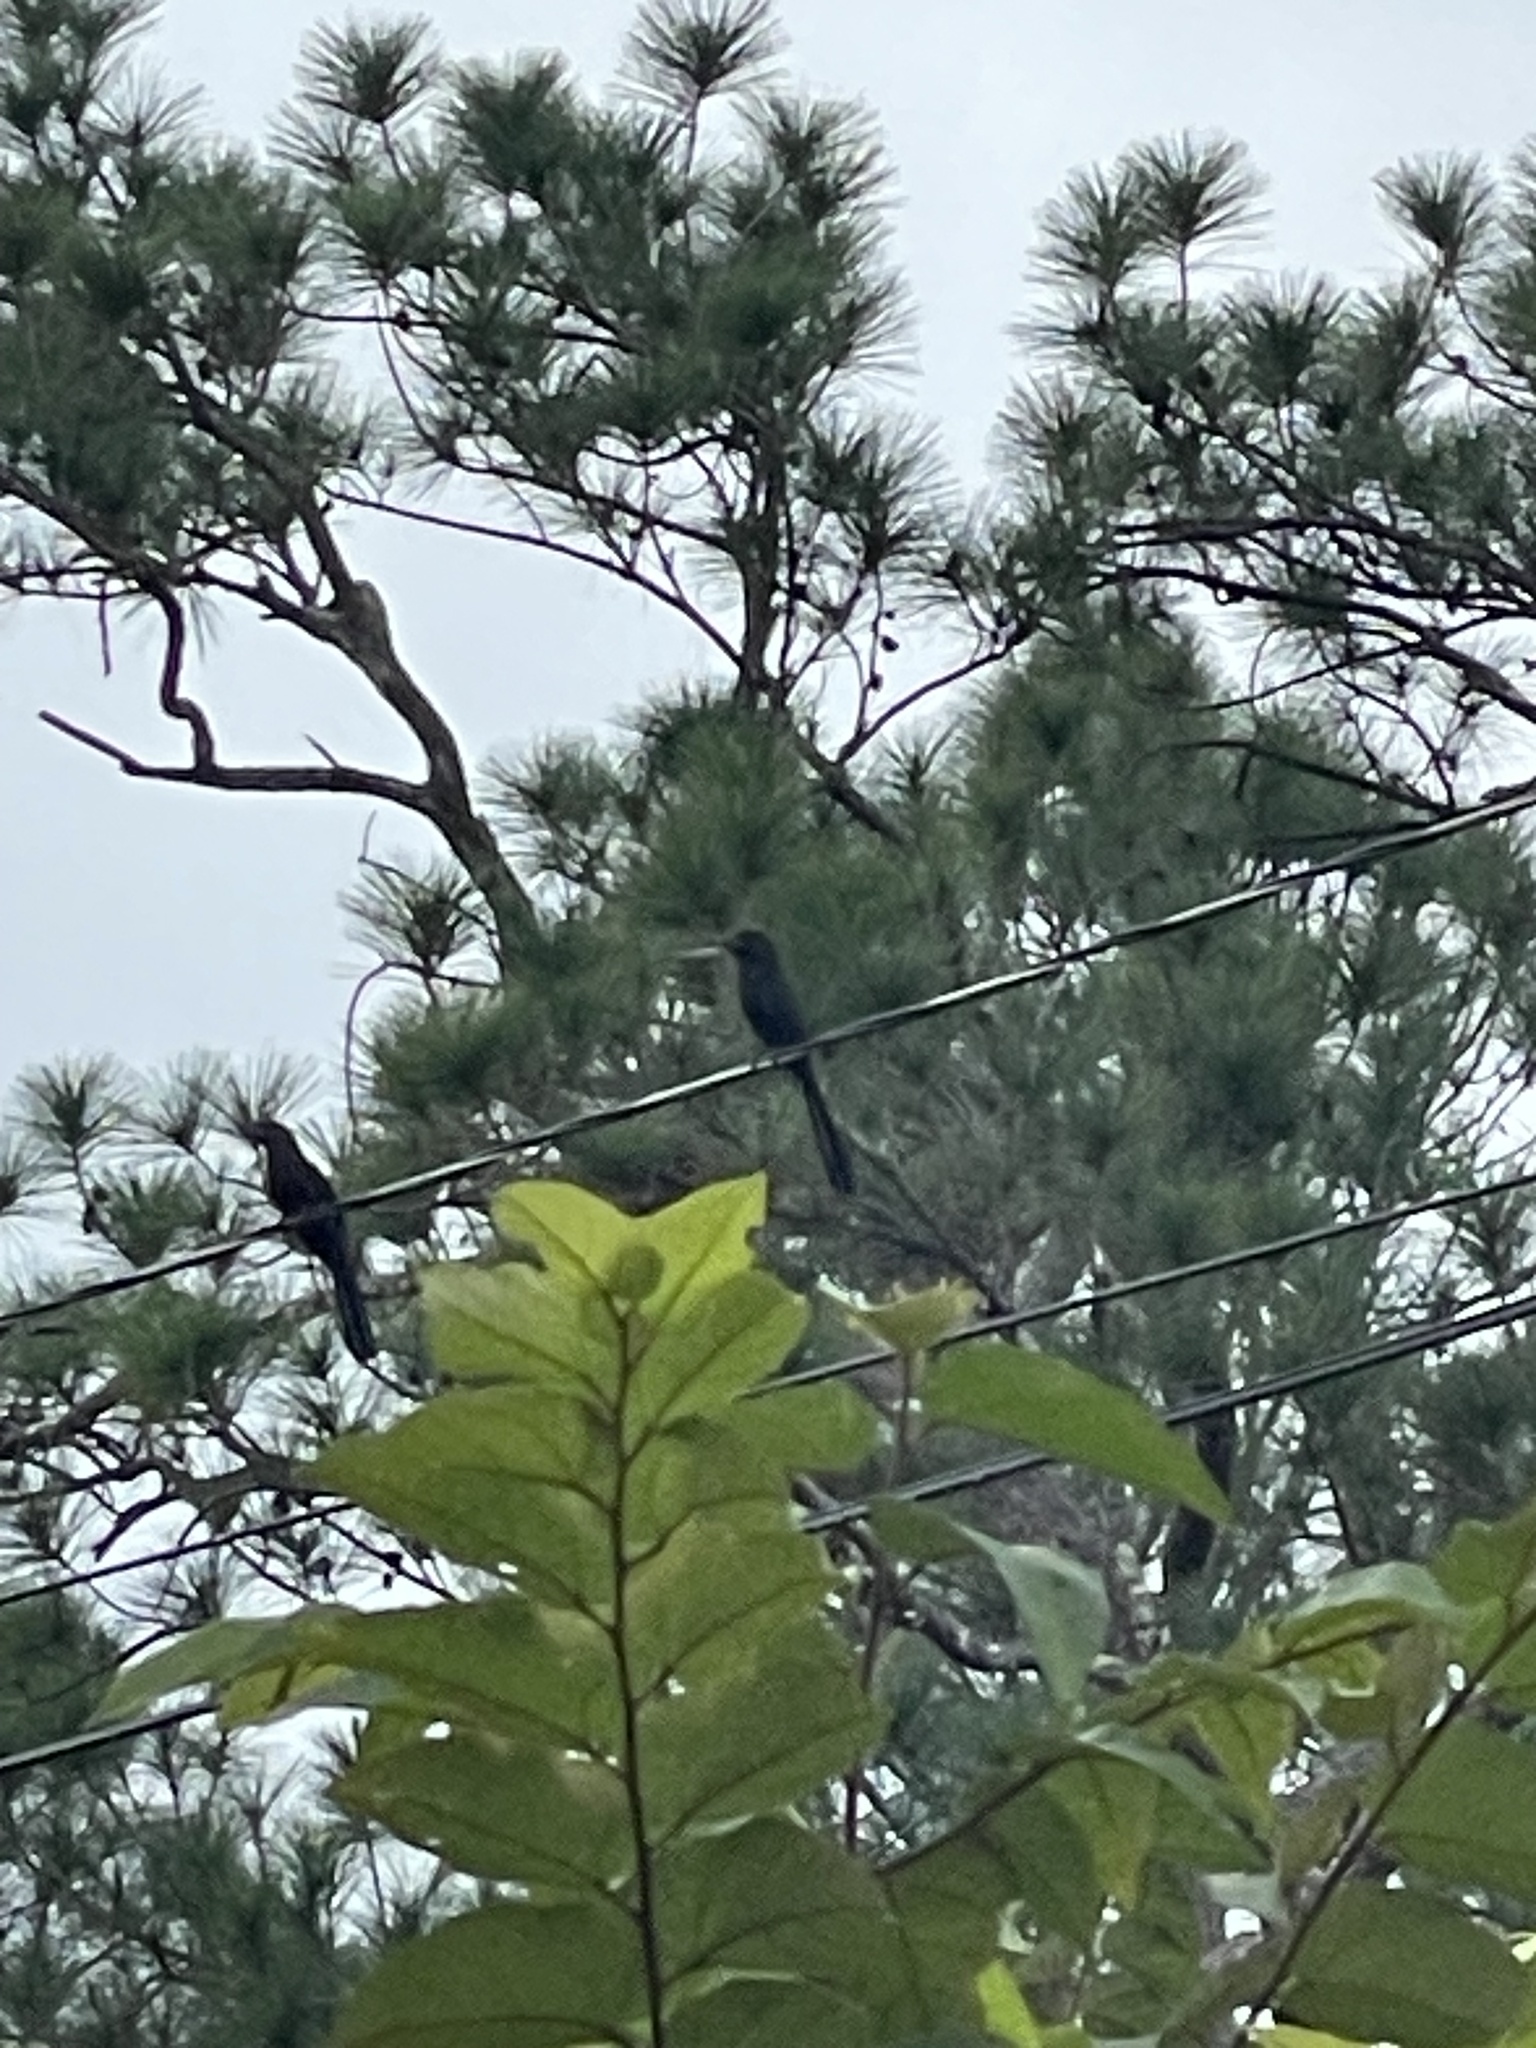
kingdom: Animalia
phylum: Chordata
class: Aves
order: Cuculiformes
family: Cuculidae
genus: Crotophaga
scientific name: Crotophaga sulcirostris
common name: Groove-billed ani
